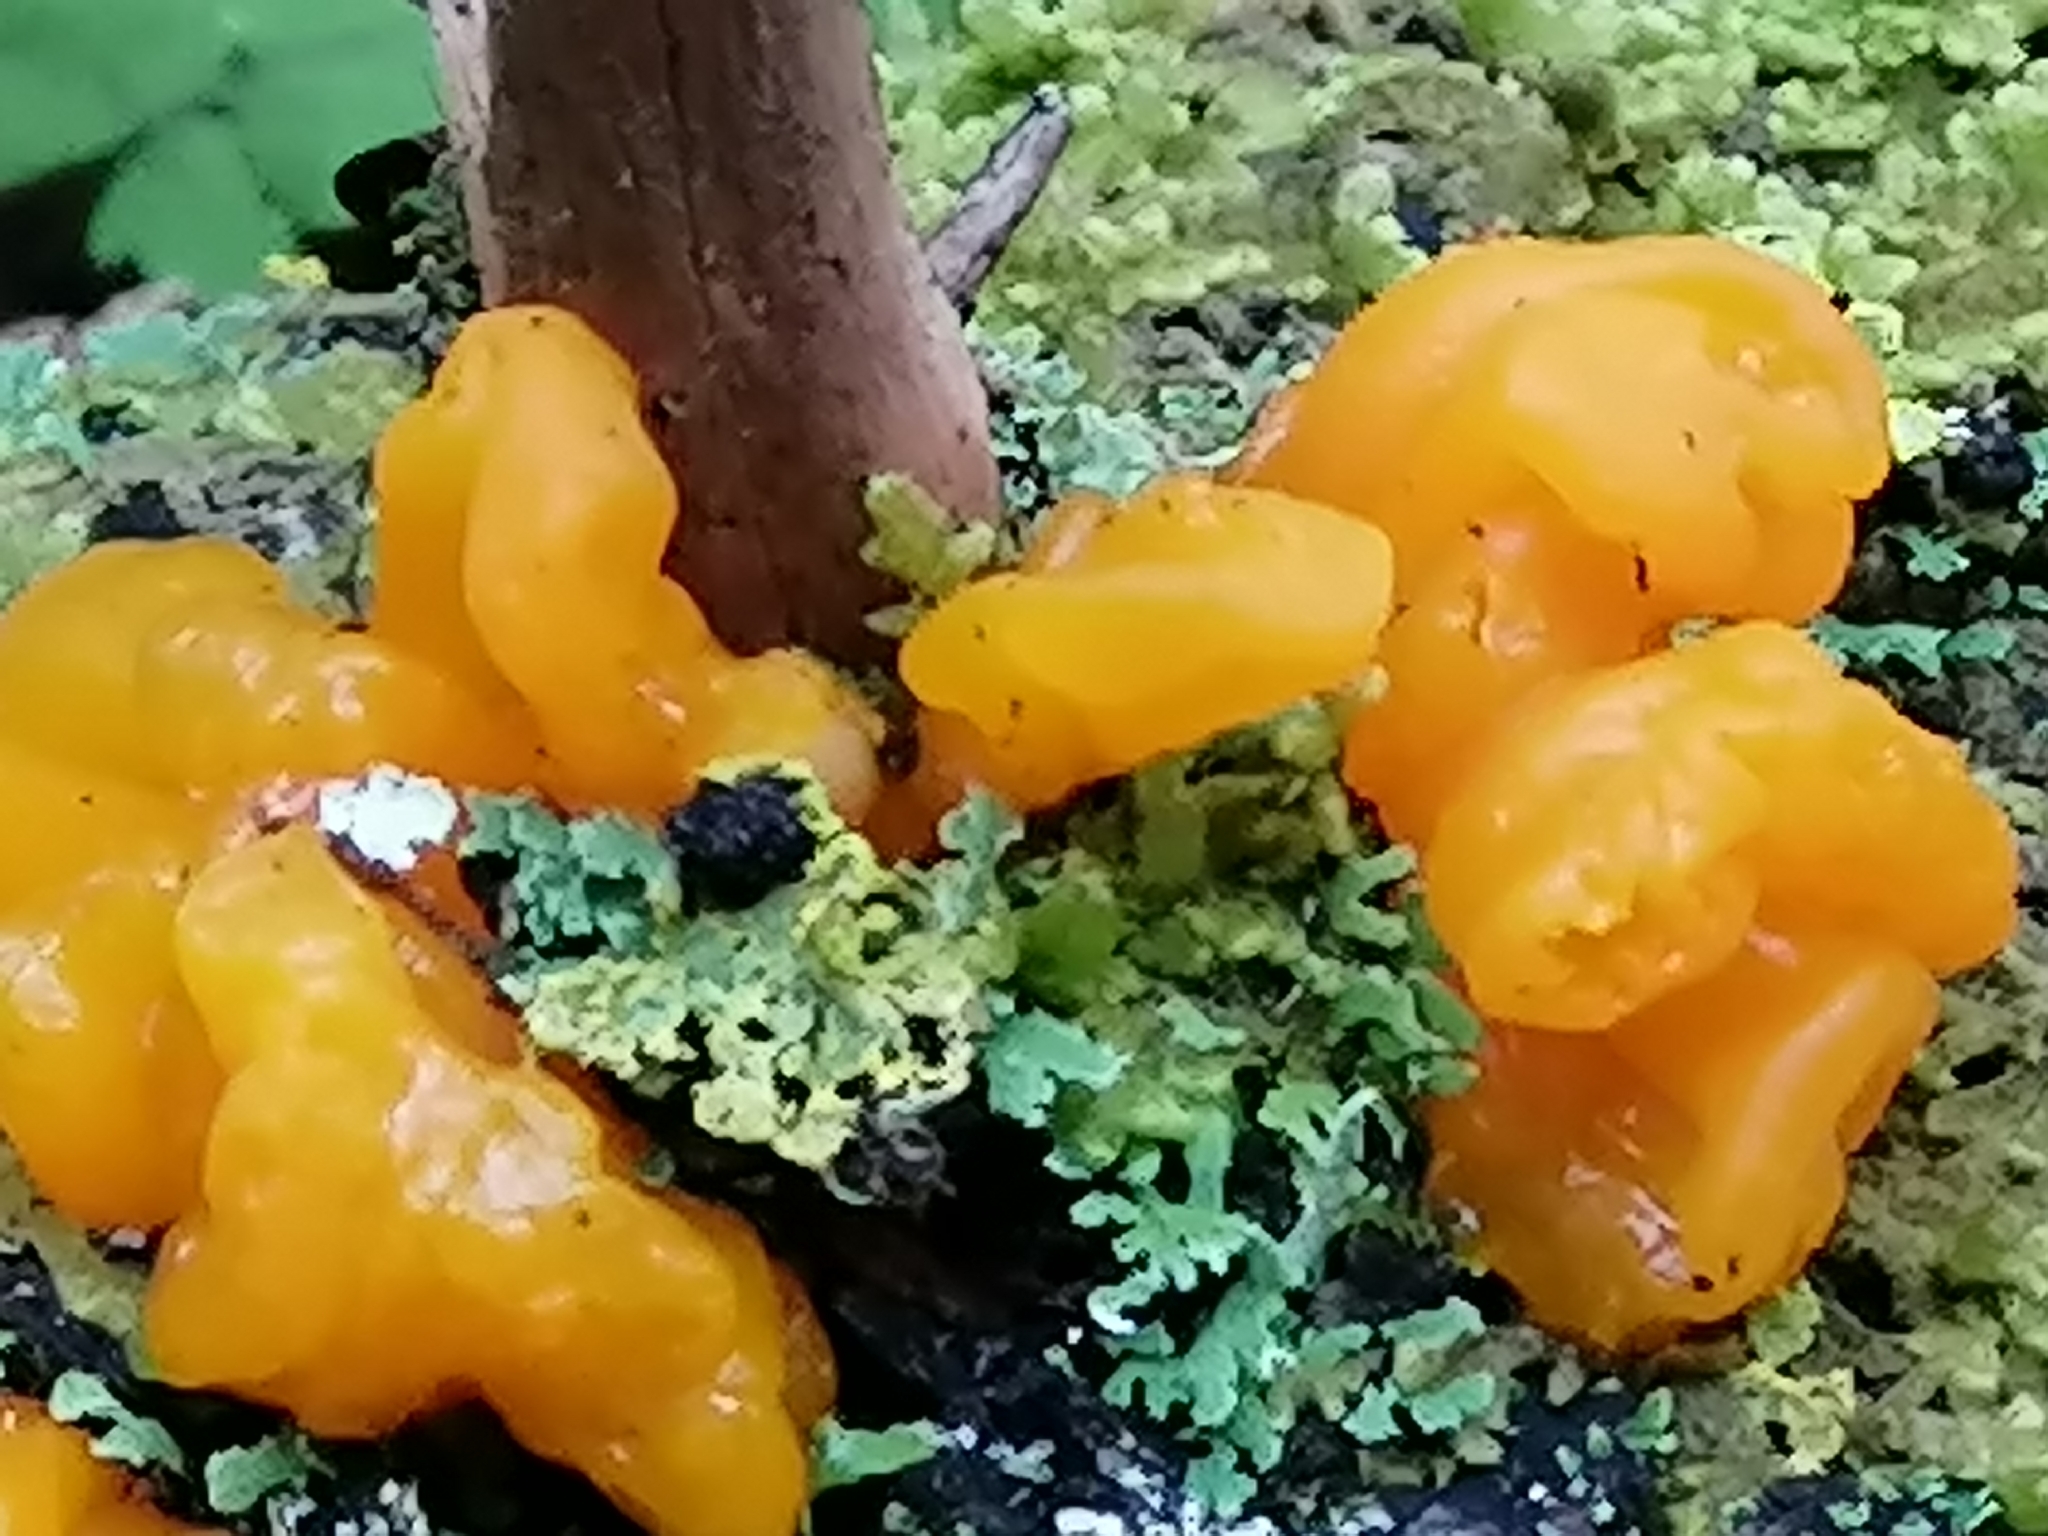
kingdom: Fungi
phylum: Basidiomycota
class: Dacrymycetes
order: Dacrymycetales
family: Dacrymycetaceae
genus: Dacrymyces
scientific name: Dacrymyces chrysospermus
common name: Orange jelly spot
